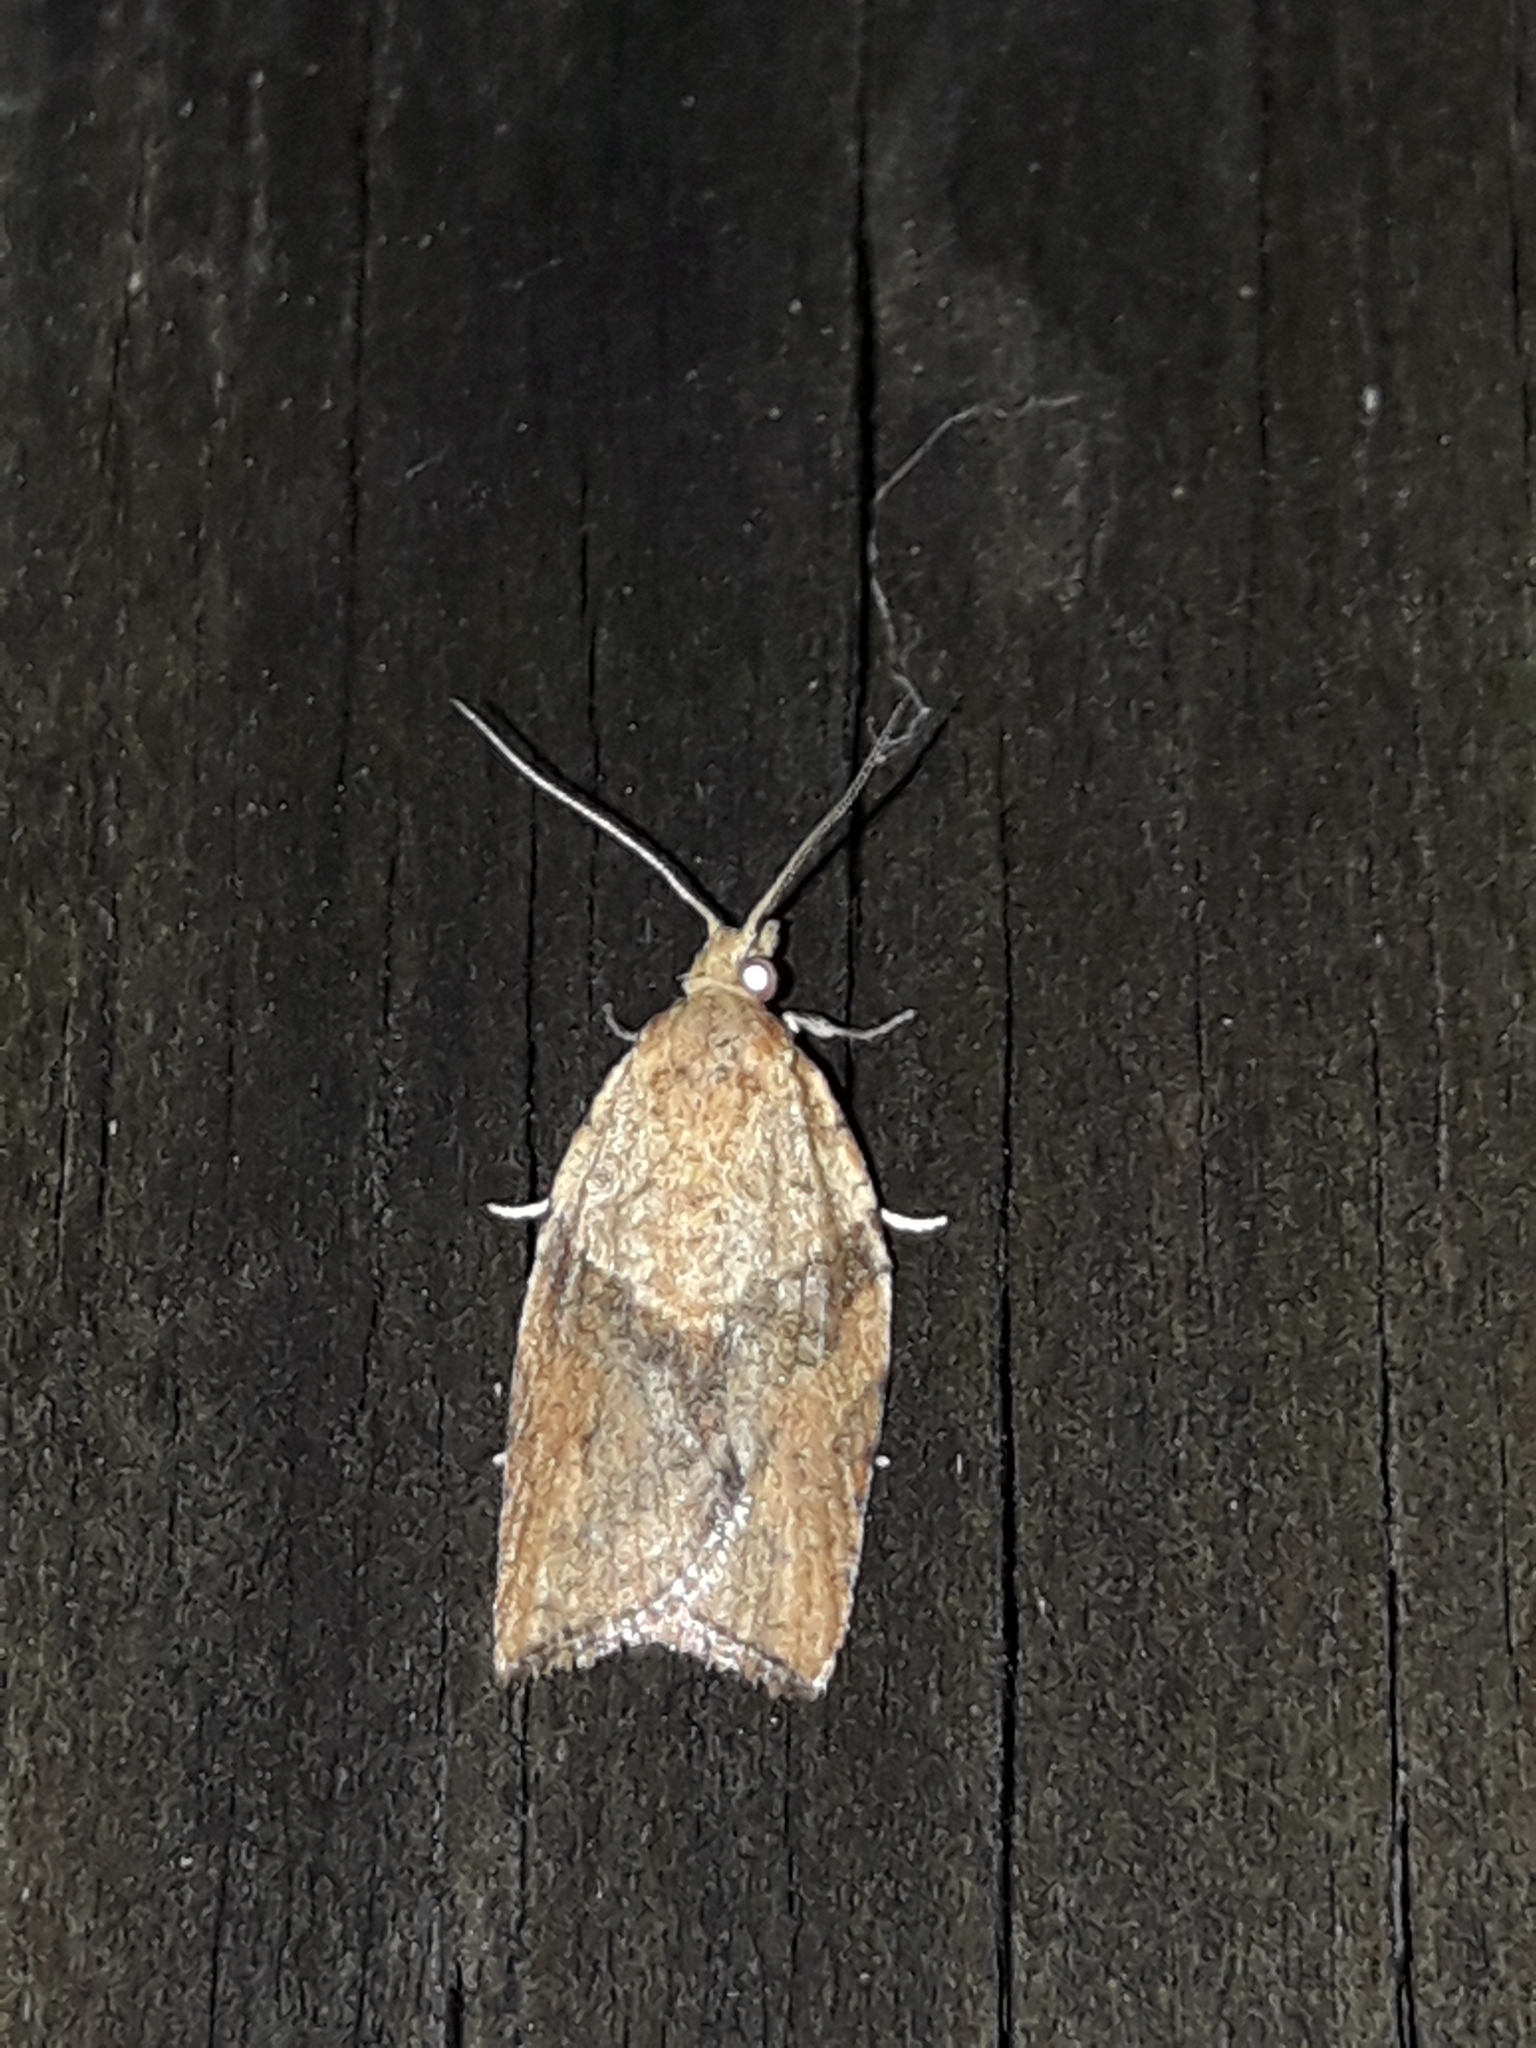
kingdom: Animalia
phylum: Arthropoda
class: Insecta
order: Lepidoptera
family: Tortricidae
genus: Epiphyas
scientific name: Epiphyas postvittana
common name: Light brown apple moth
